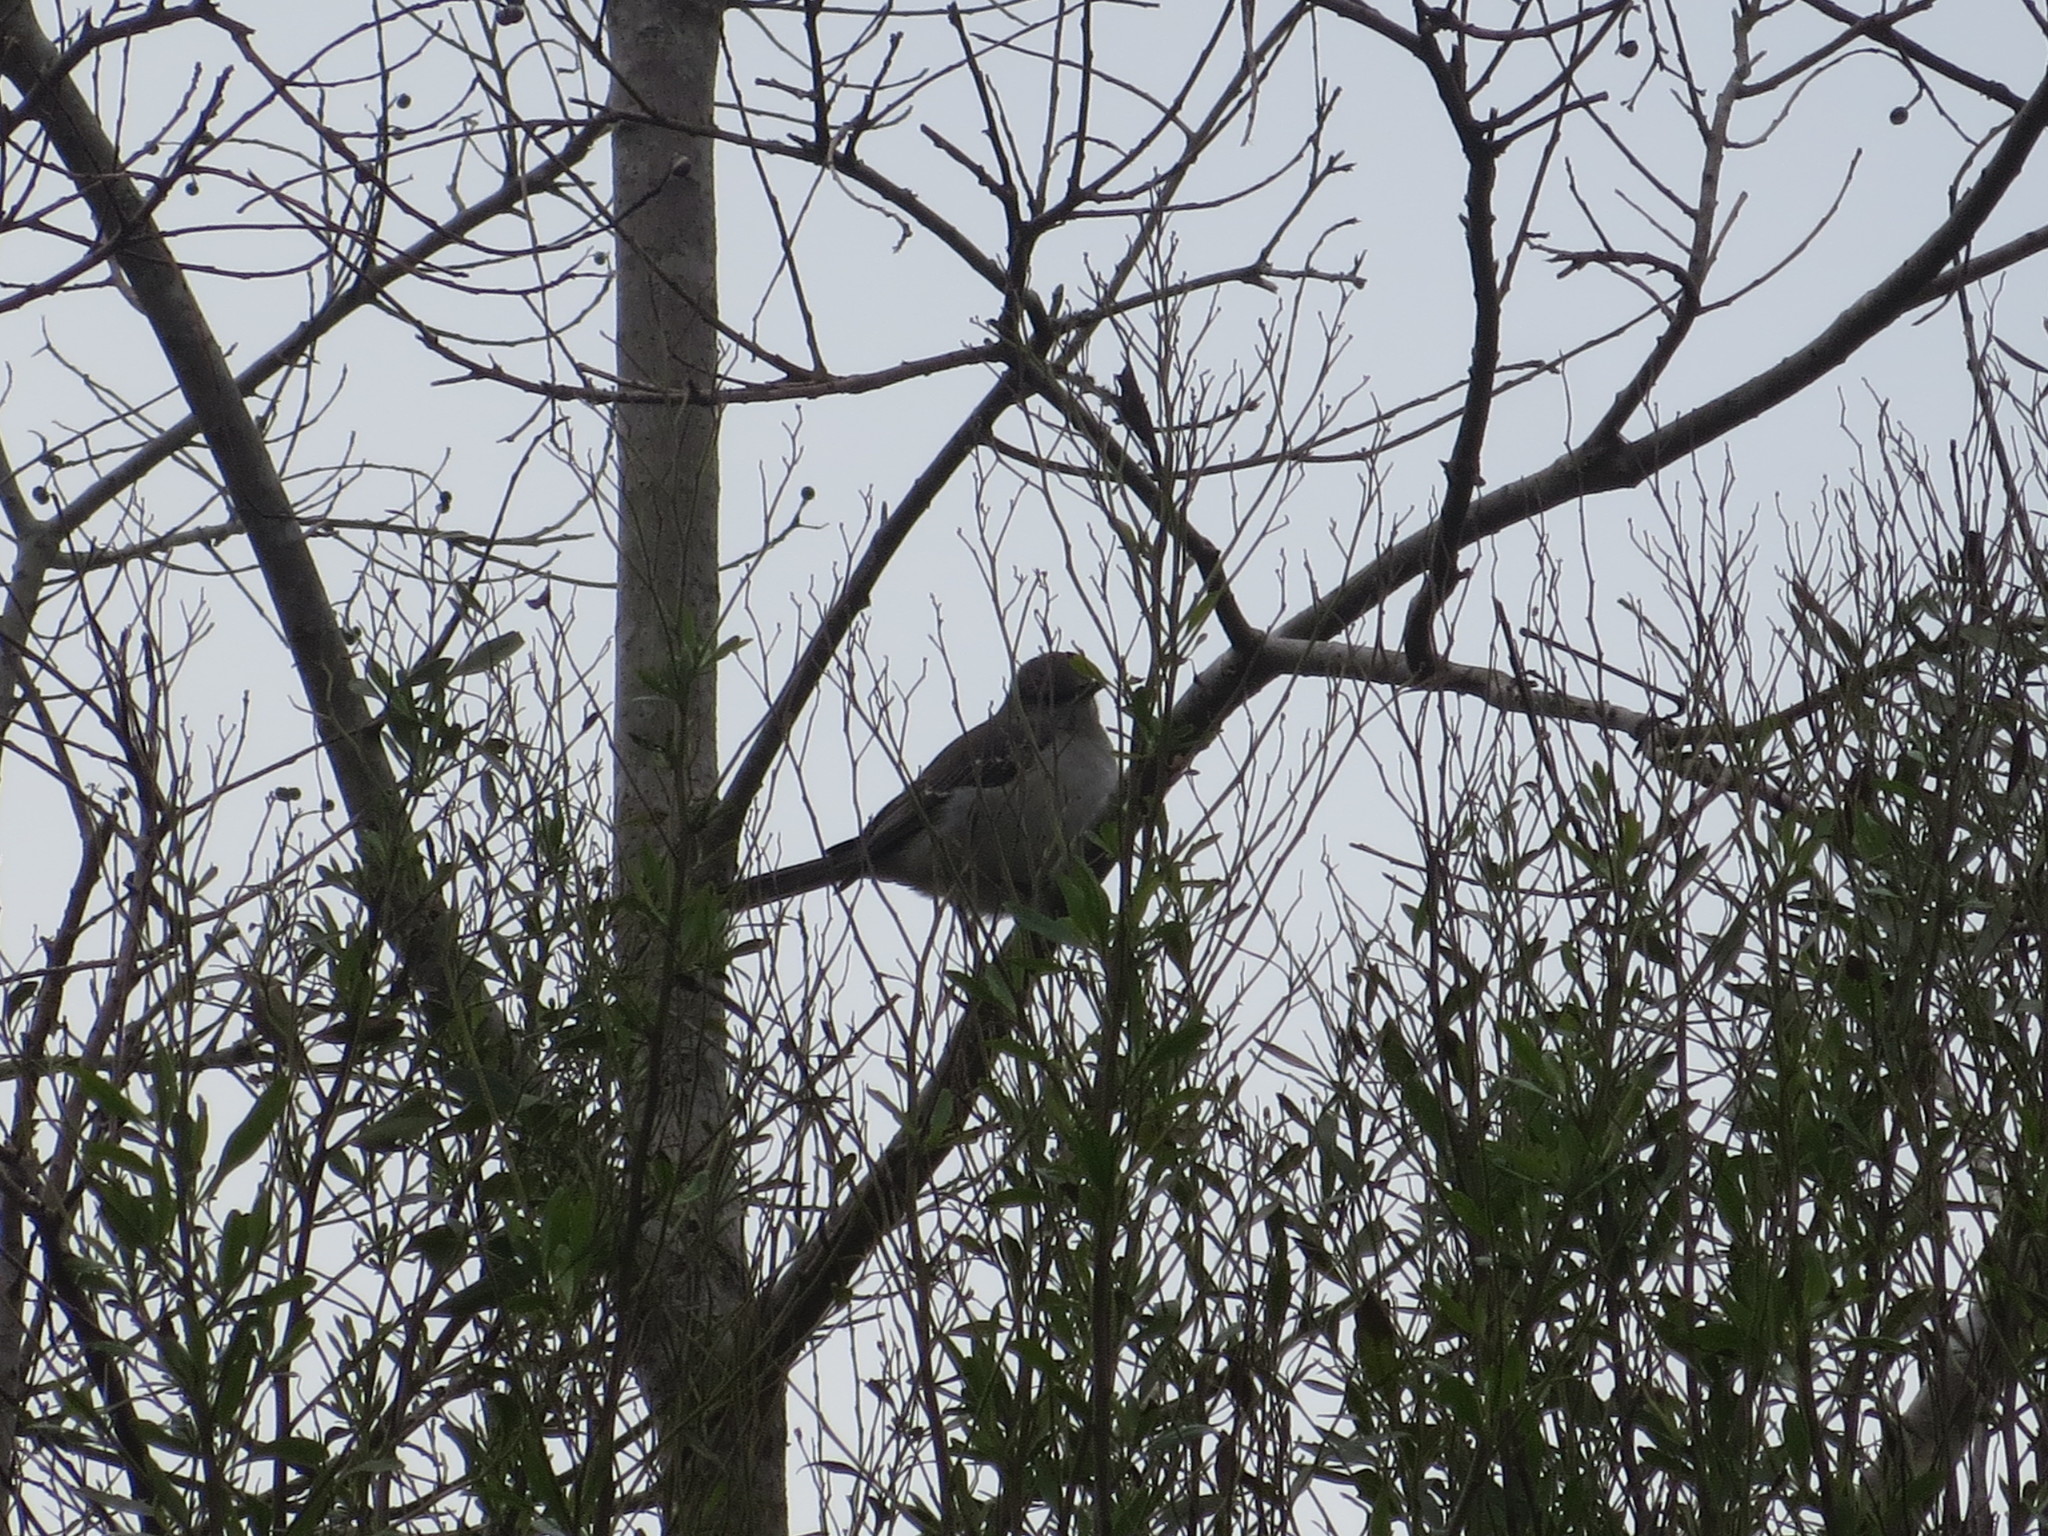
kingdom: Animalia
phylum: Chordata
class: Aves
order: Passeriformes
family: Mimidae
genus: Mimus
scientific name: Mimus polyglottos
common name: Northern mockingbird
